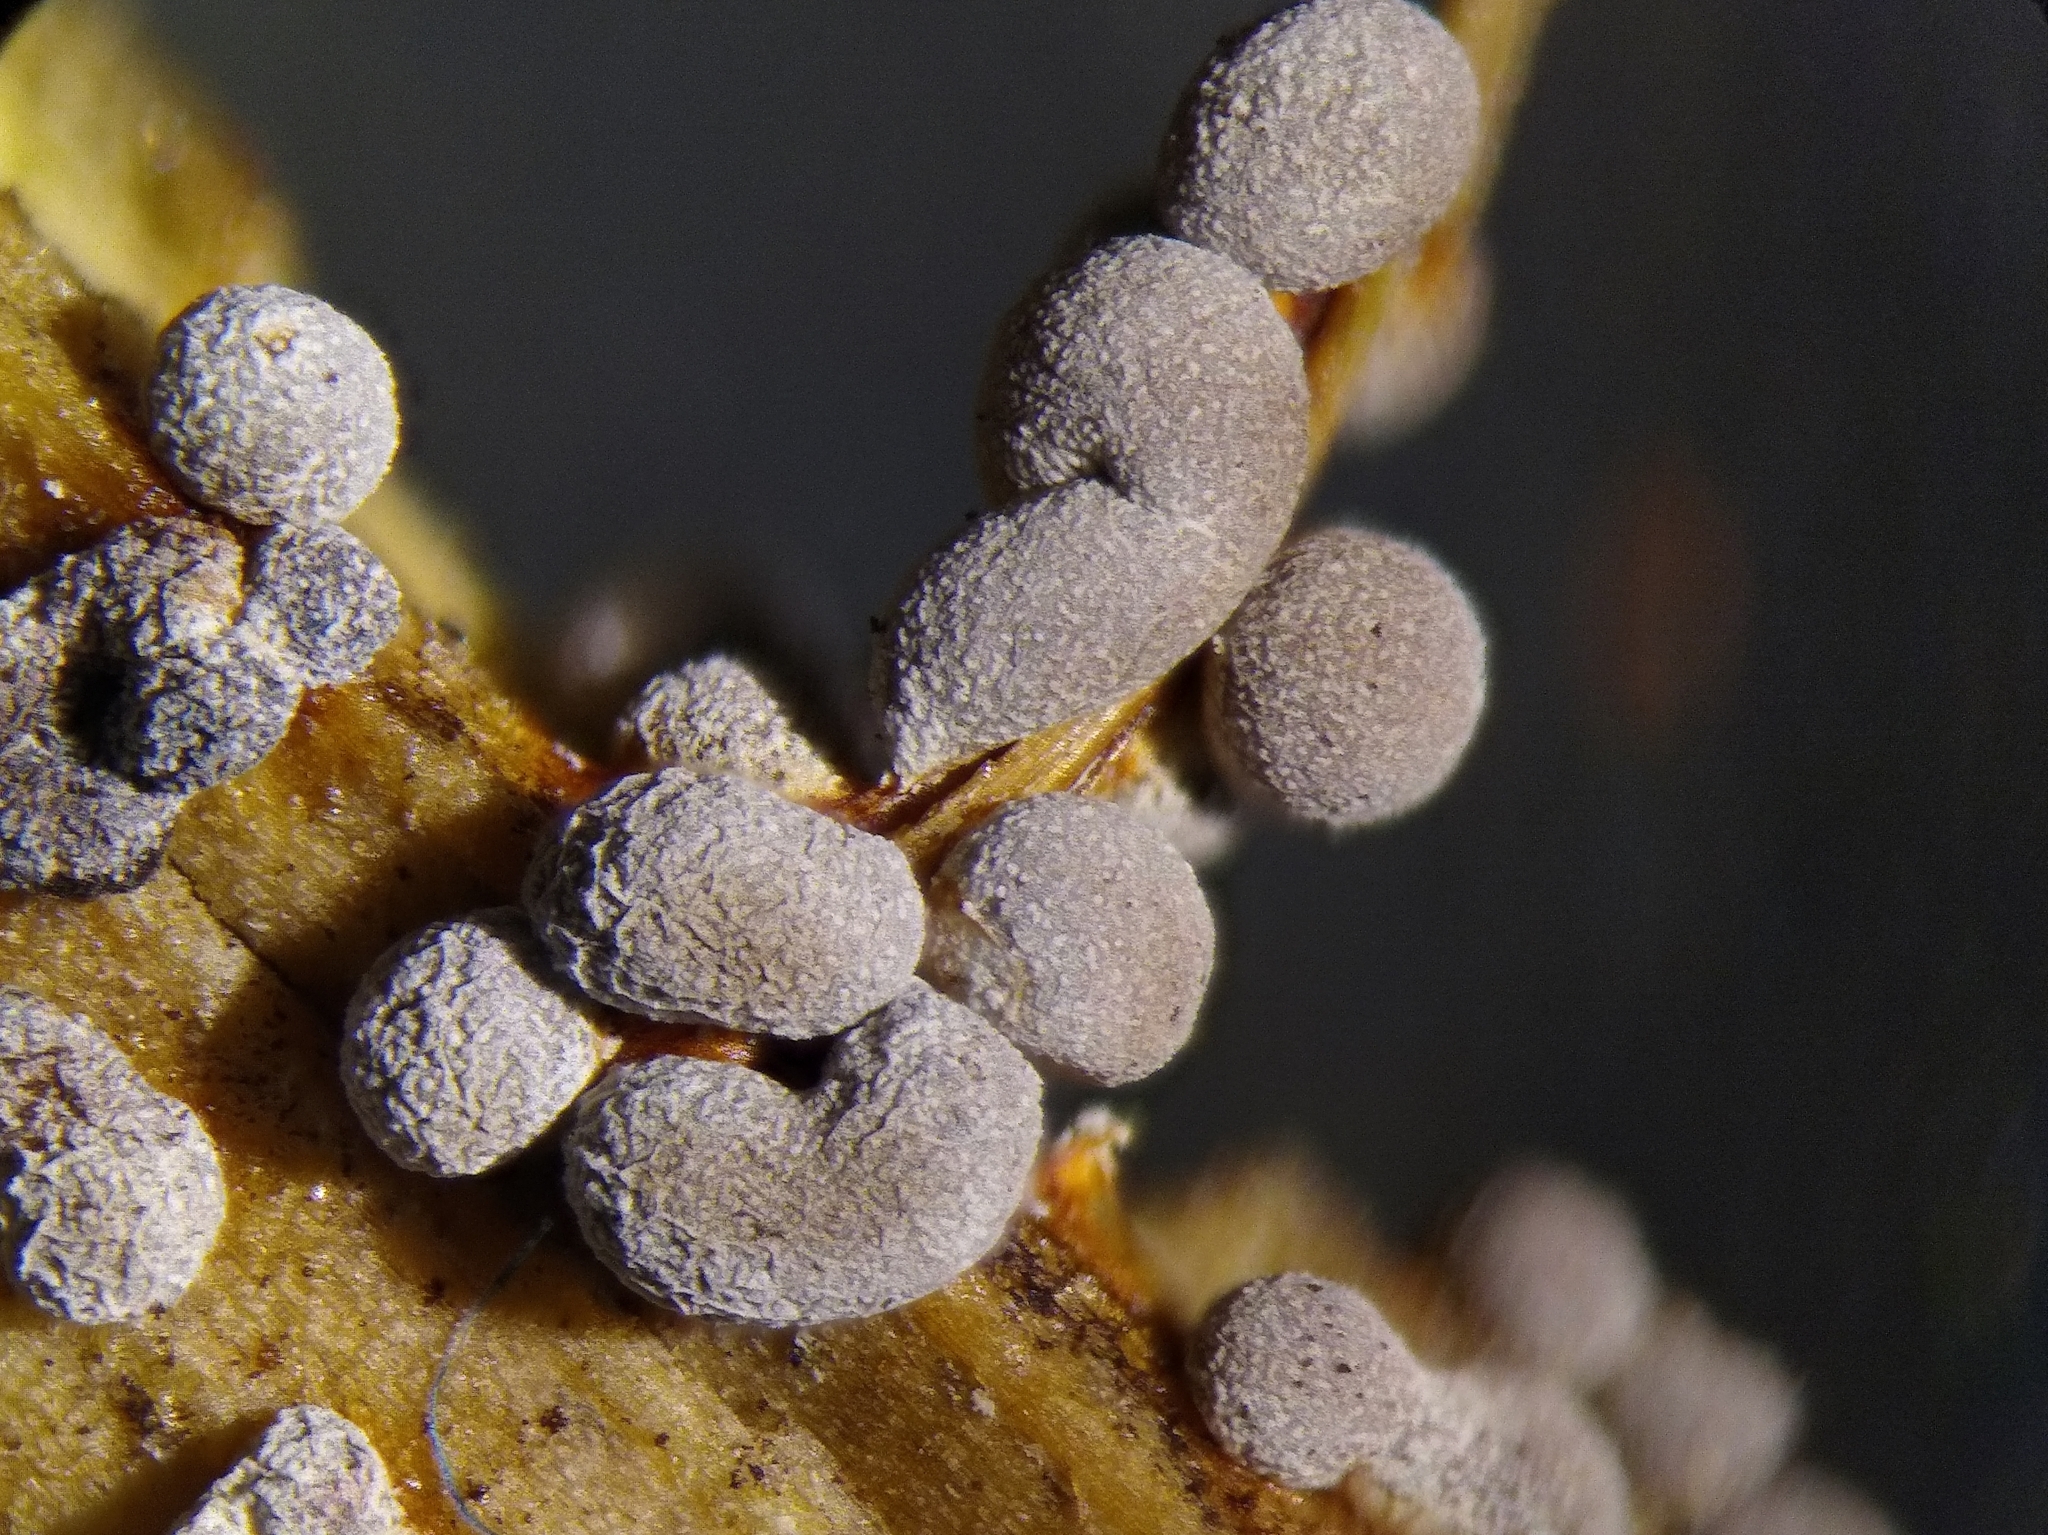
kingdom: Protozoa
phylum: Mycetozoa
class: Myxomycetes
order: Physarales
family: Physaraceae
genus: Badhamia
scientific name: Badhamia panicea
